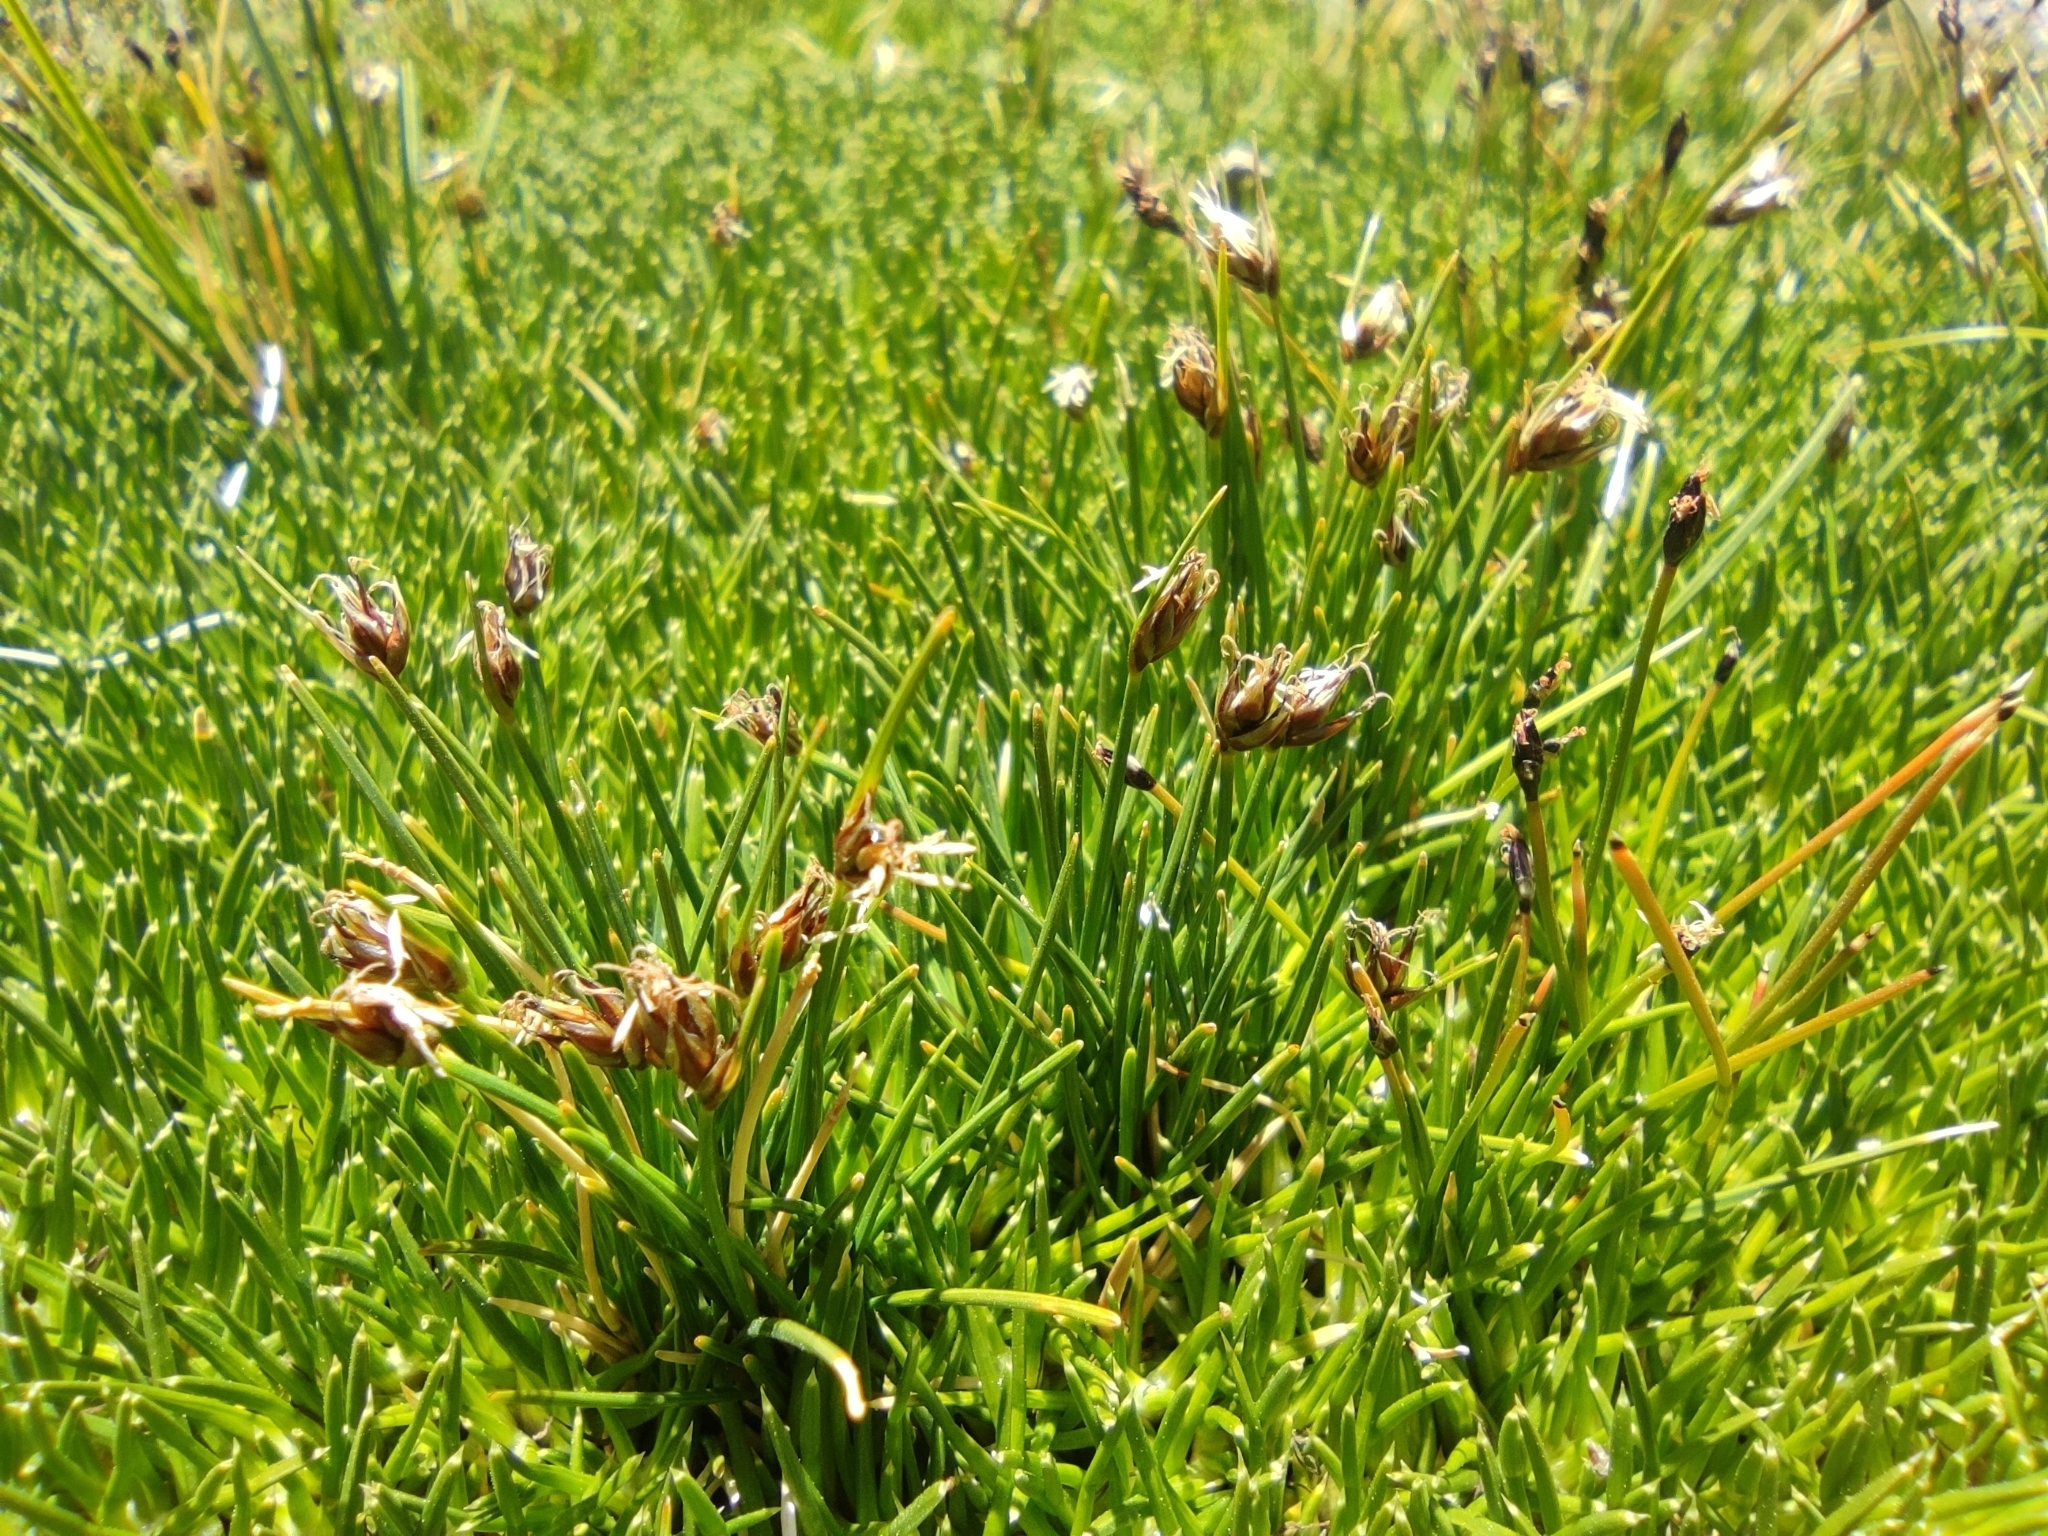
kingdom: Plantae
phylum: Tracheophyta
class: Liliopsida
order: Poales
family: Cyperaceae
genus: Carex
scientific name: Carex vallis-pulchrae
